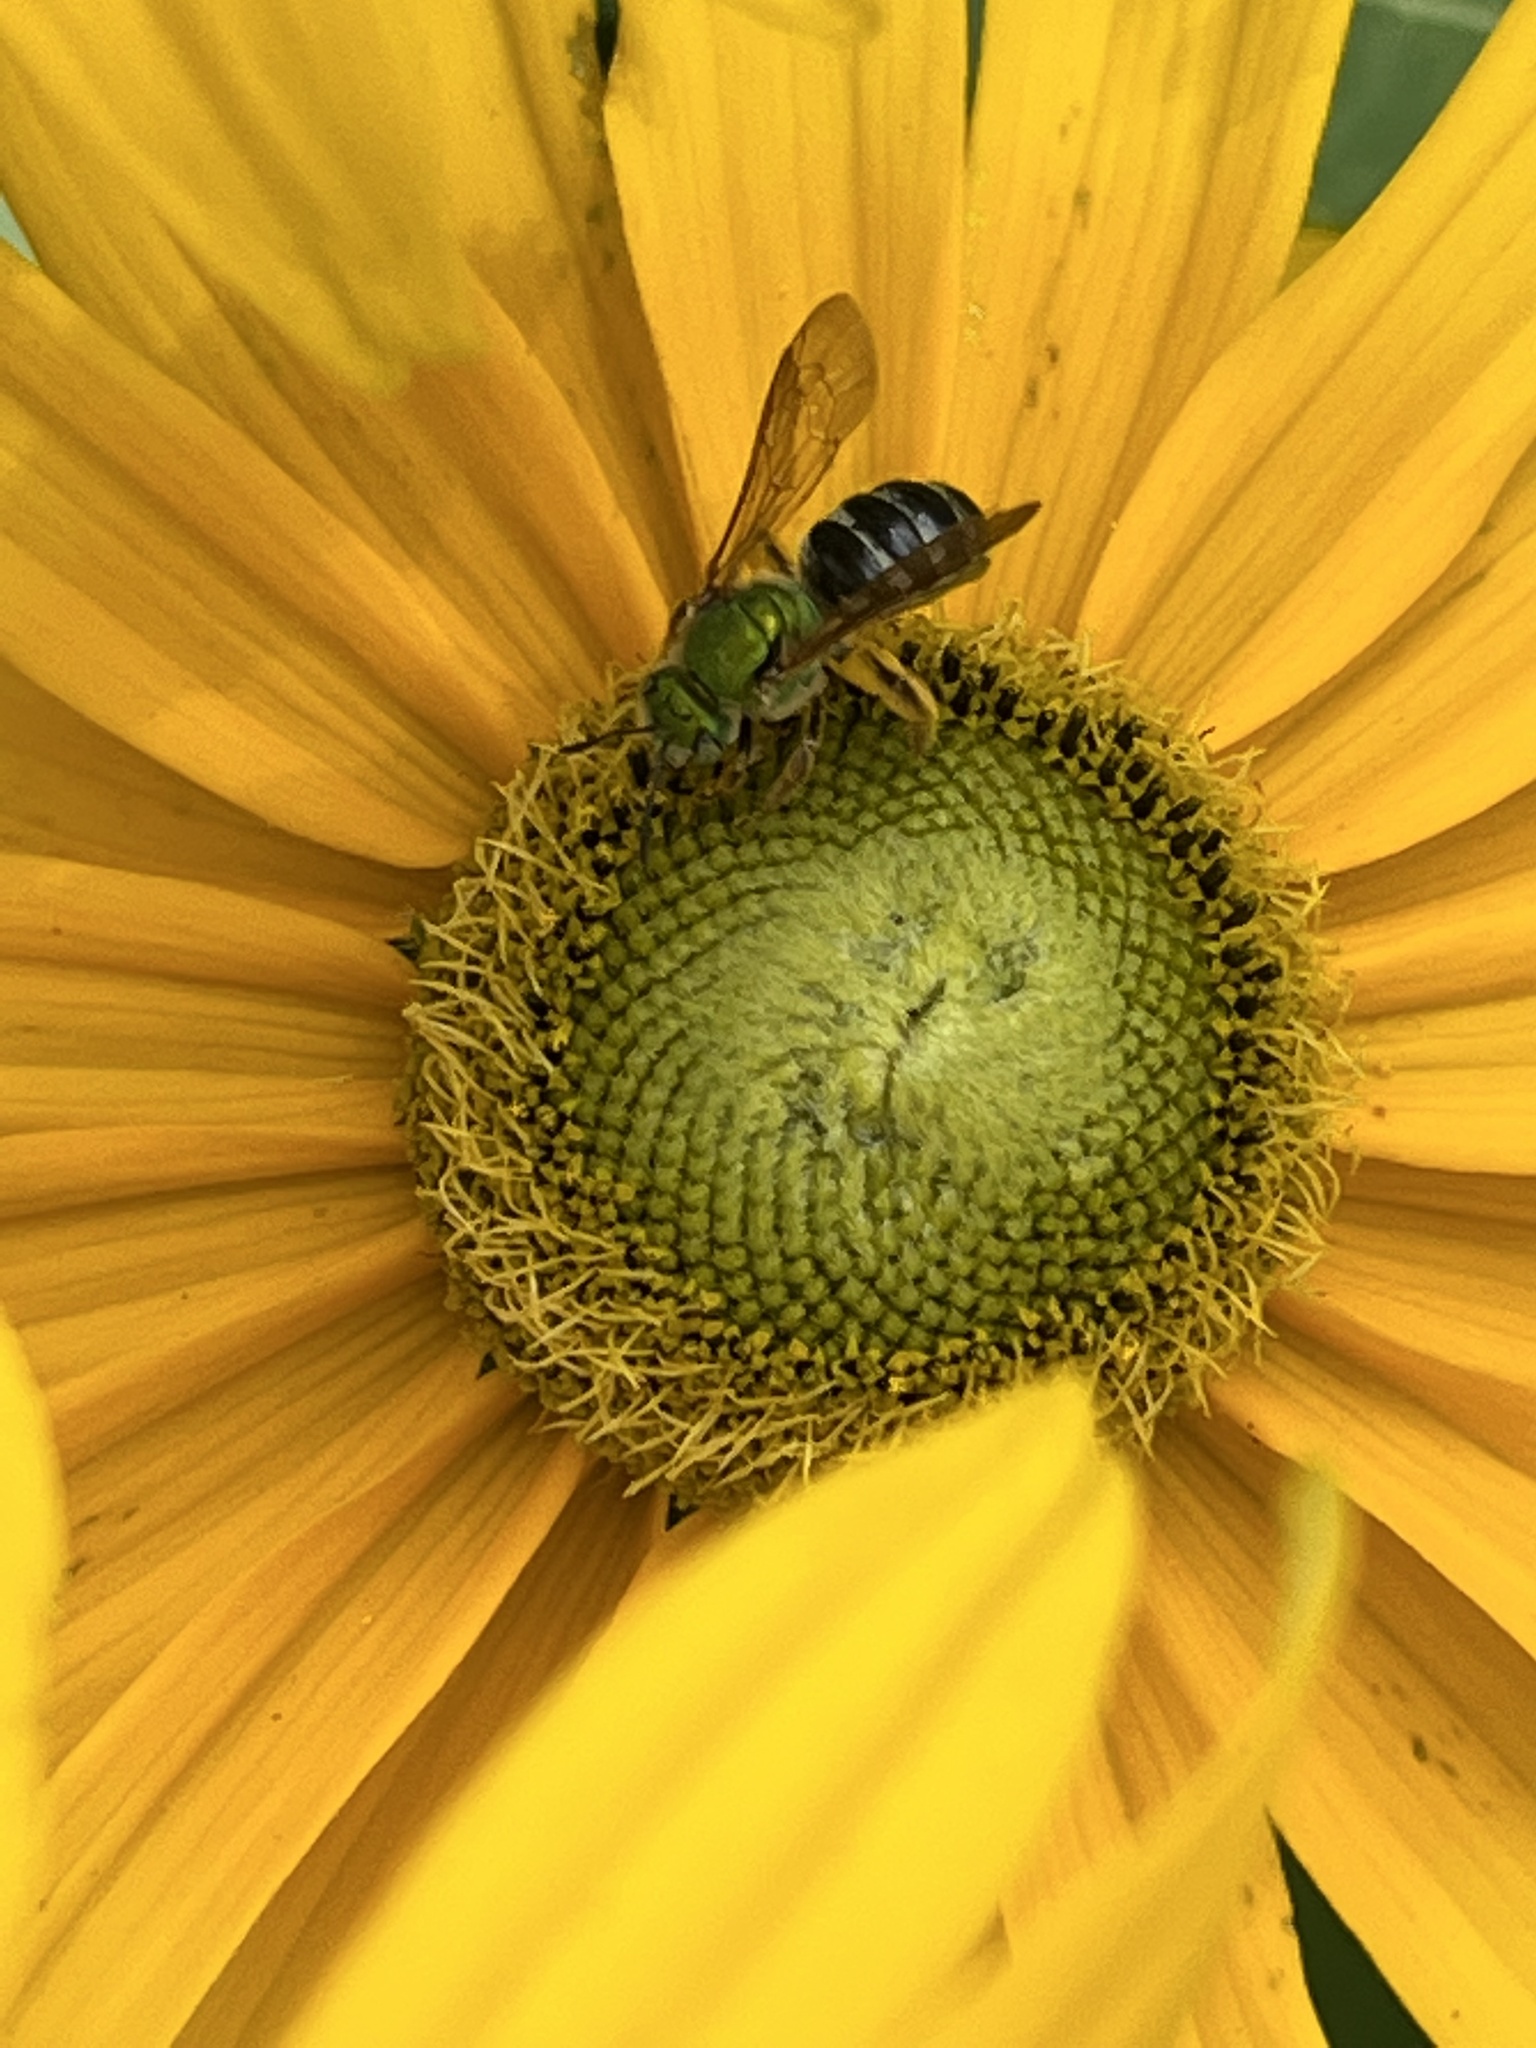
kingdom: Animalia
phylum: Arthropoda
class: Insecta
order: Hymenoptera
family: Halictidae
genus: Agapostemon
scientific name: Agapostemon virescens
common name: Bicolored striped sweat bee
